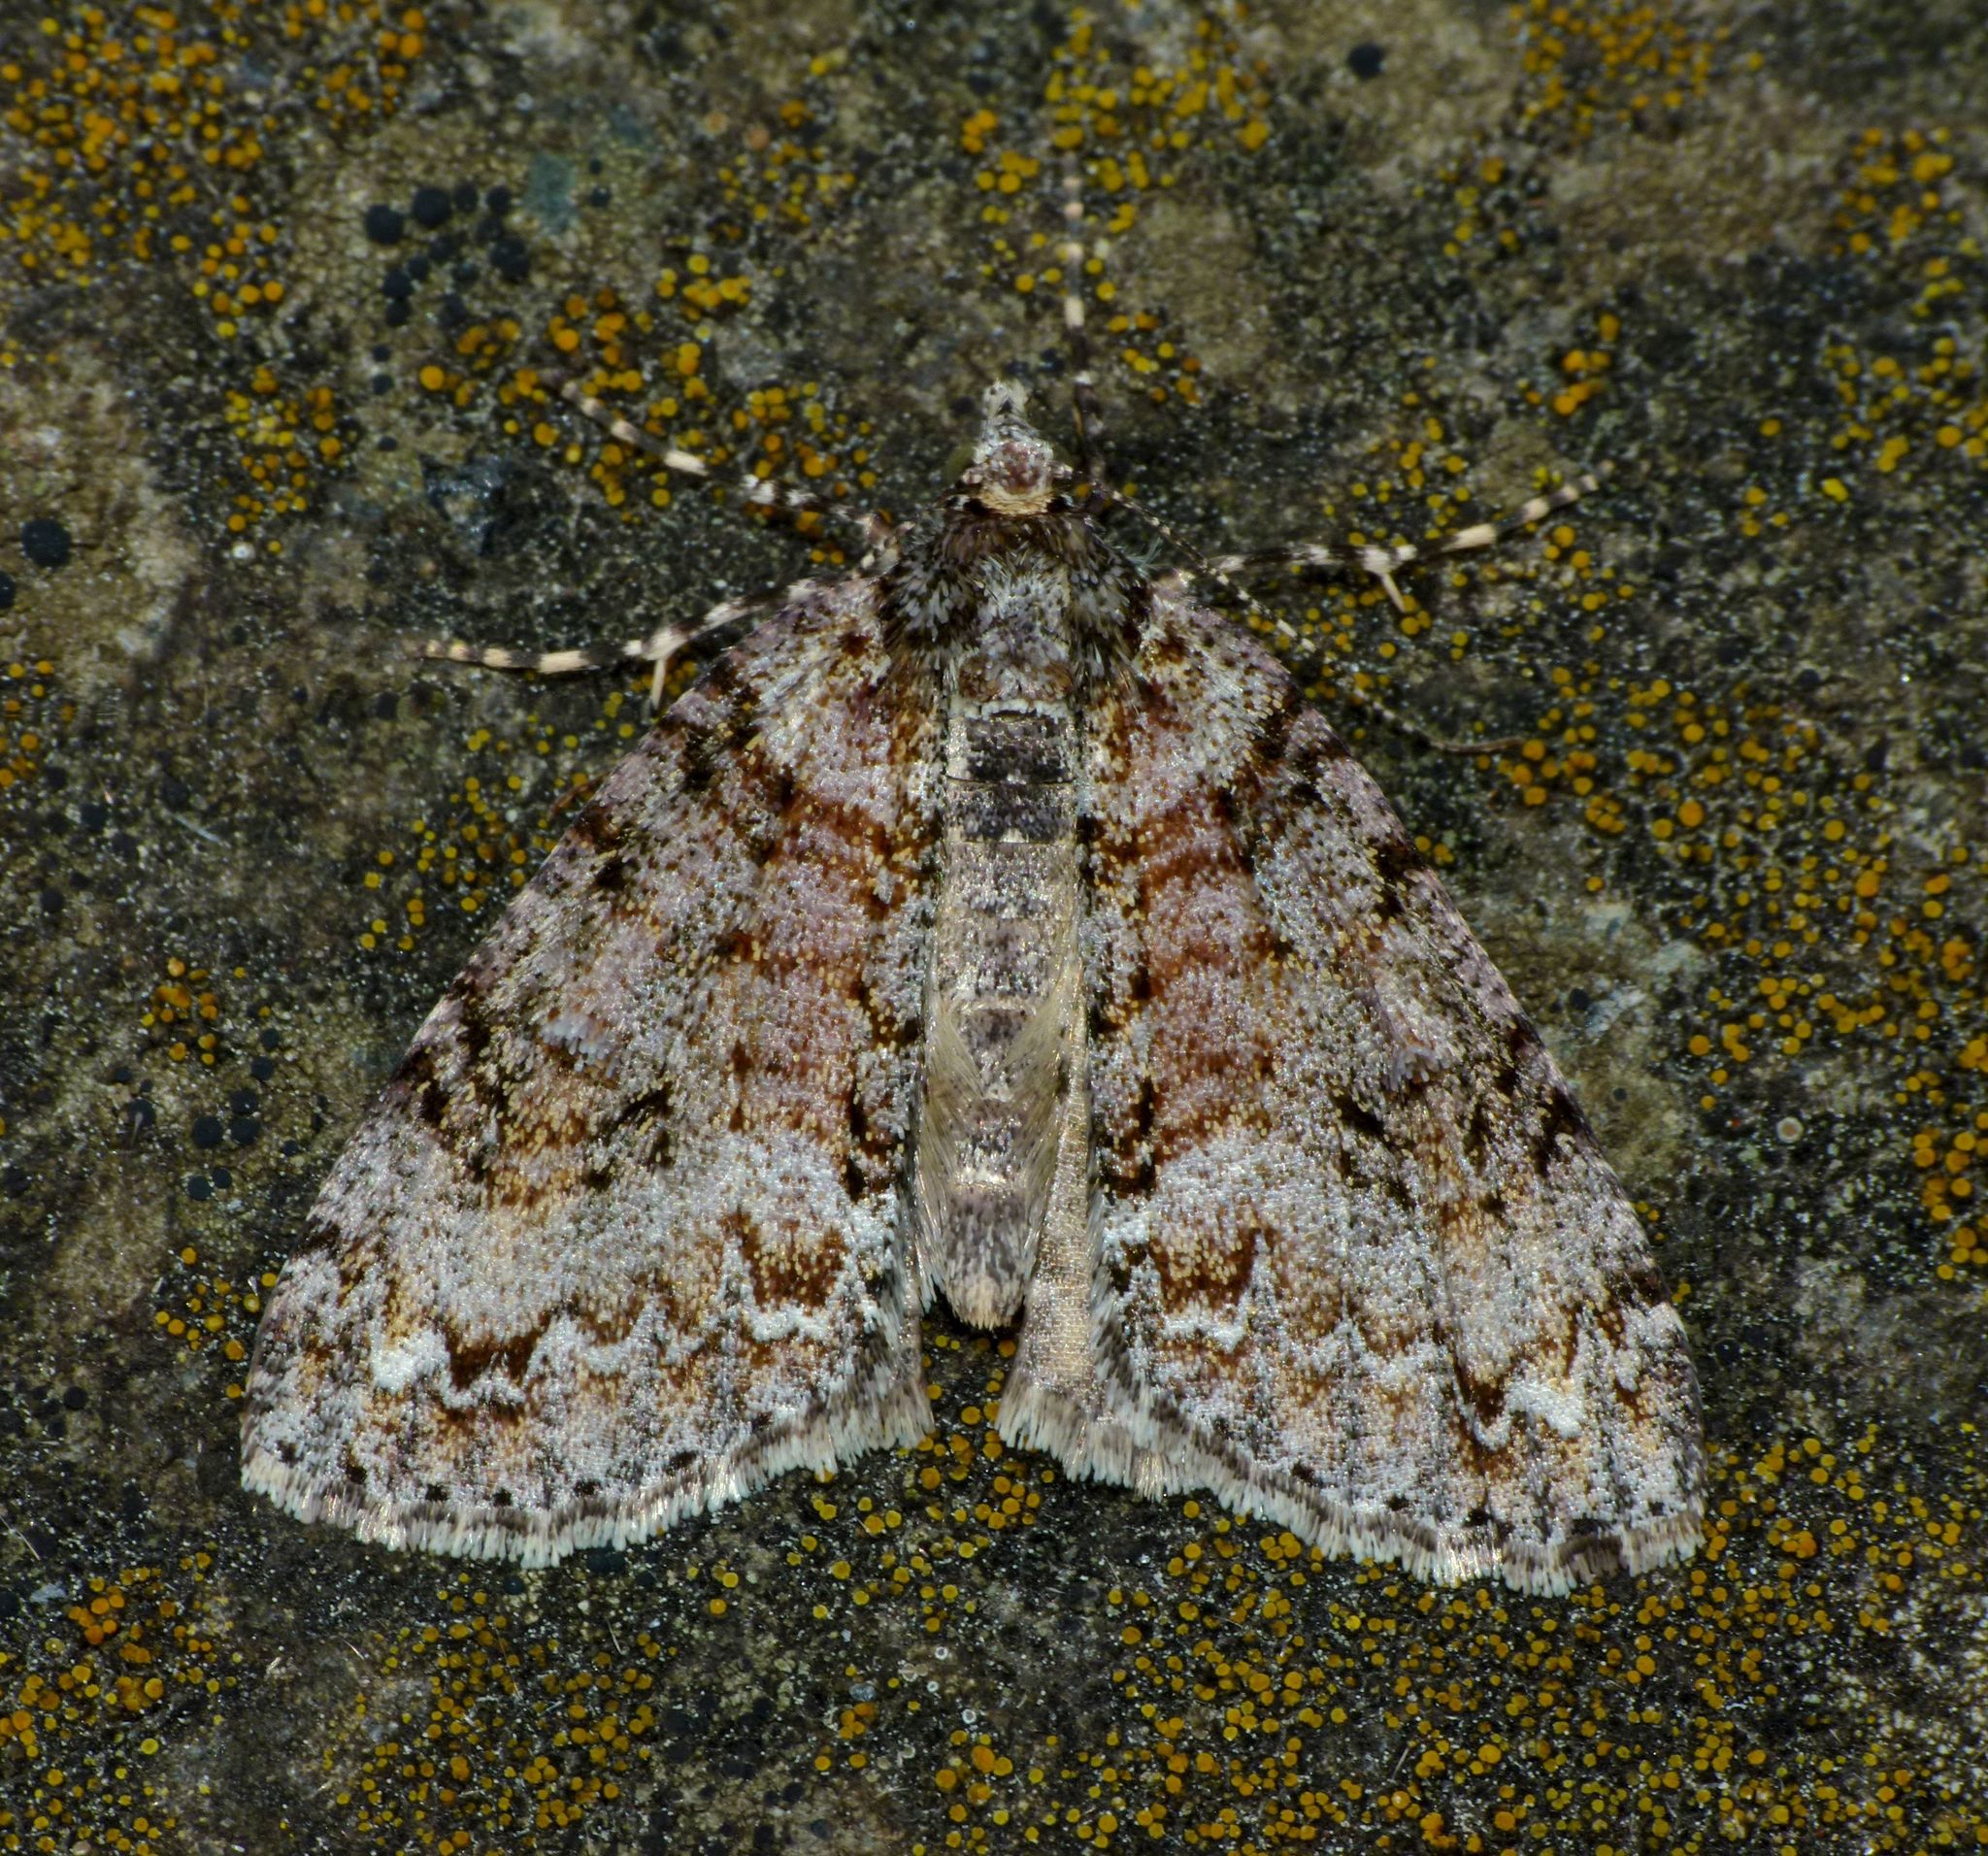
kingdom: Animalia
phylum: Arthropoda
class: Insecta
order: Lepidoptera
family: Geometridae
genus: Pseudocoremia
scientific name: Pseudocoremia suavis
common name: Common forest looper
